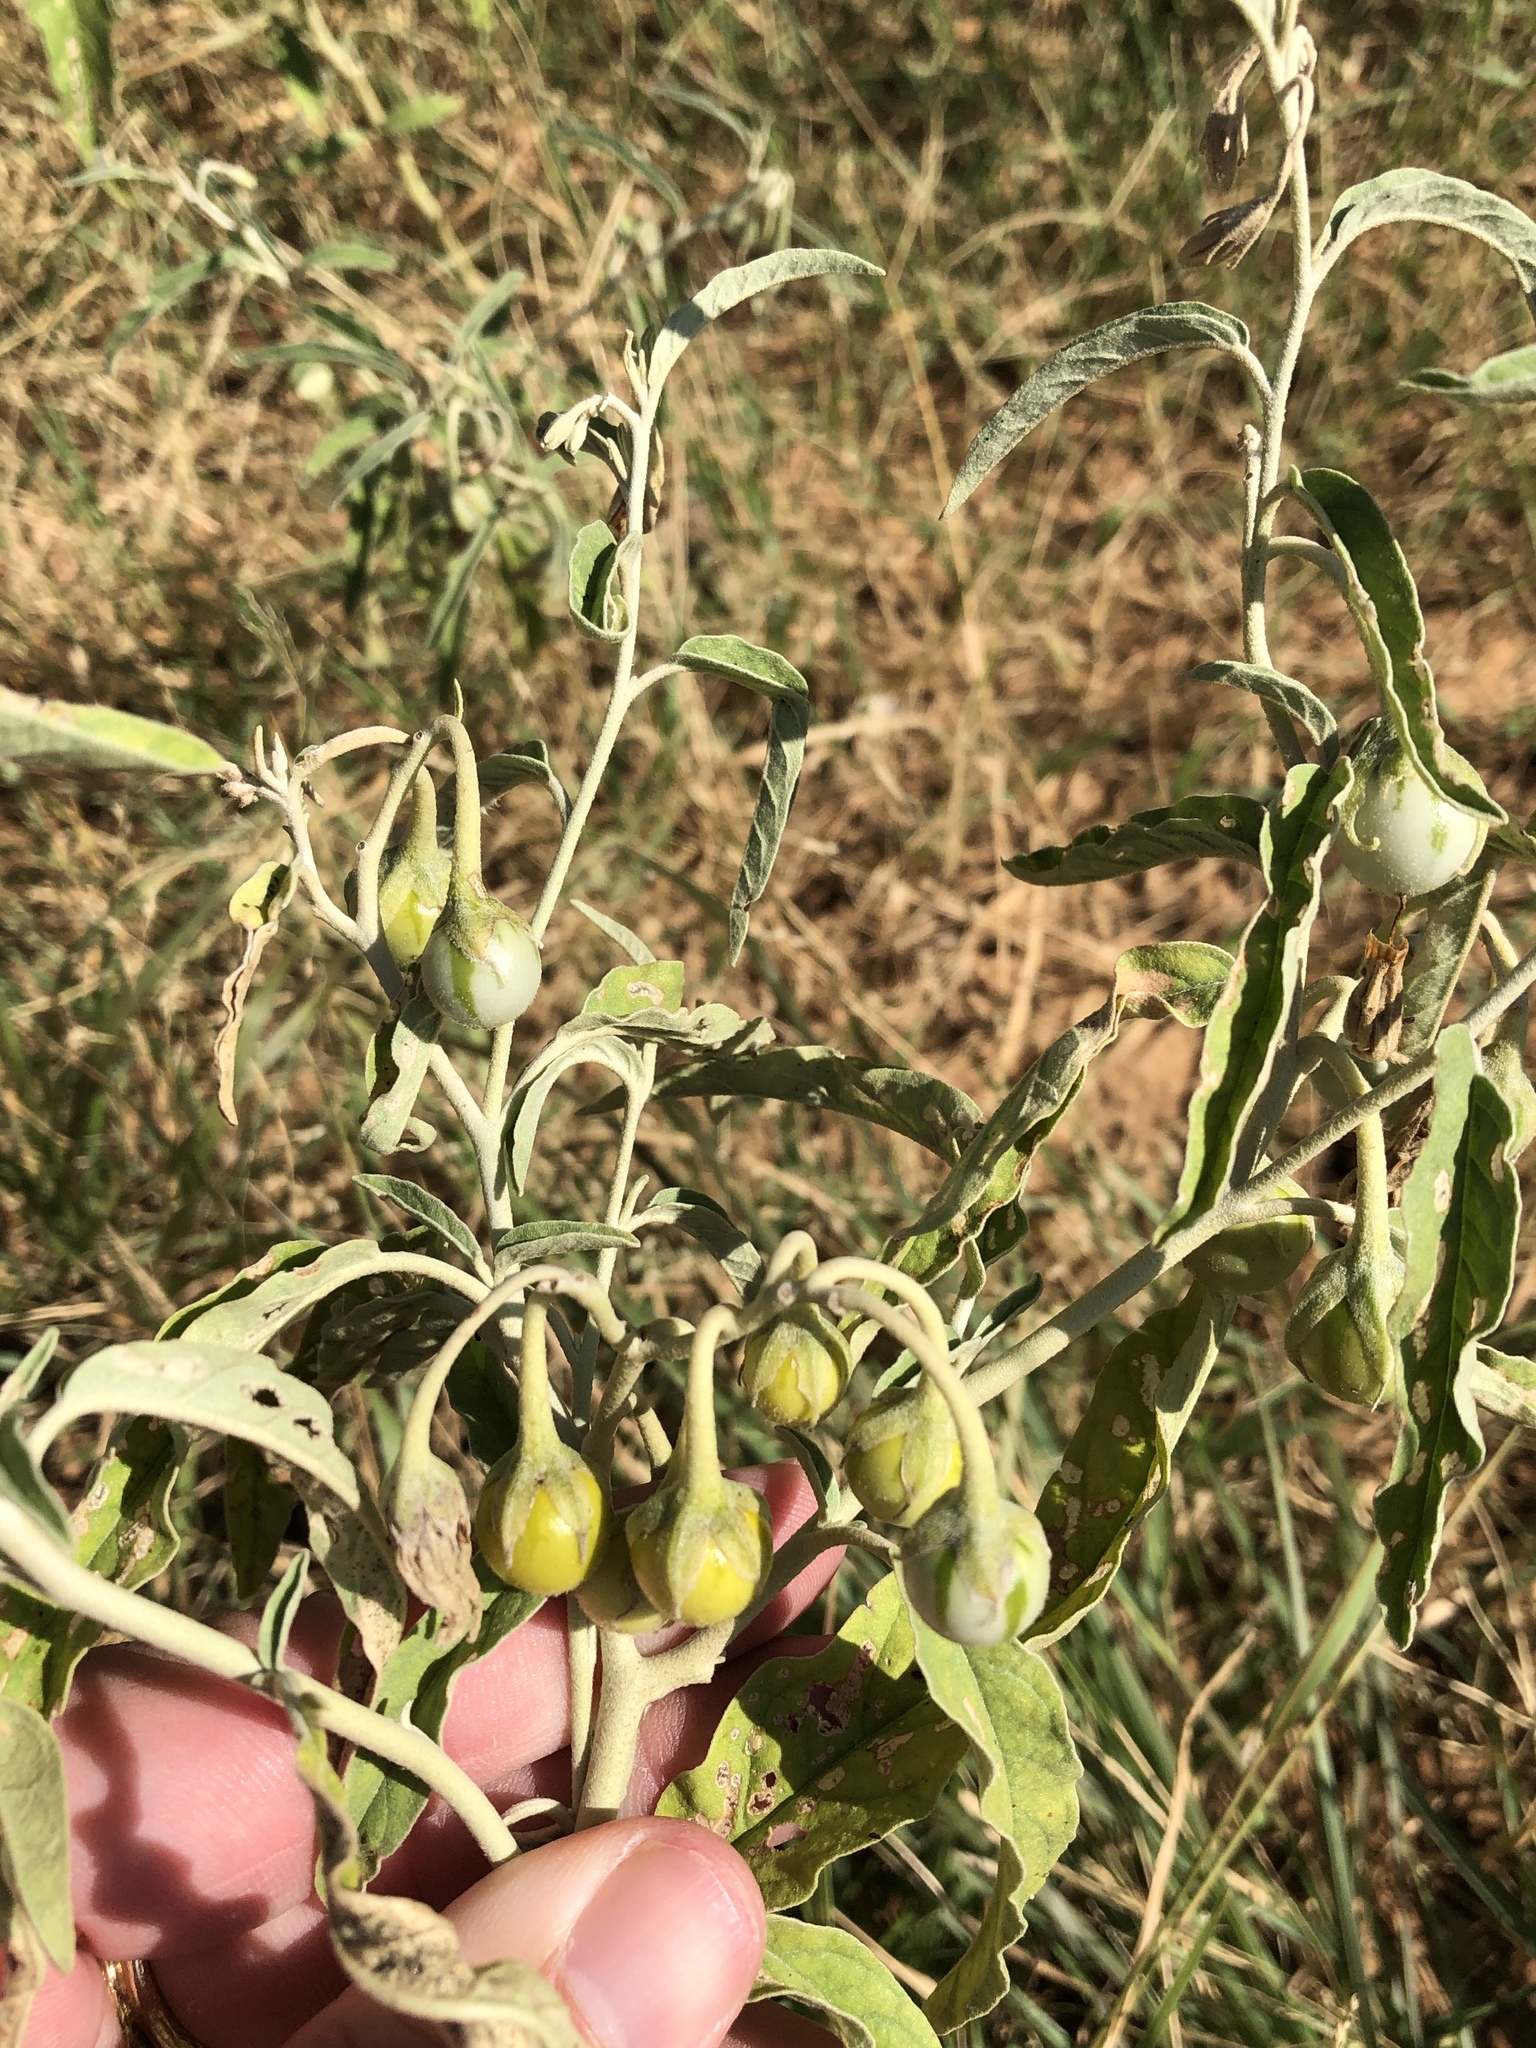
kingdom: Plantae
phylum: Tracheophyta
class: Magnoliopsida
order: Solanales
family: Solanaceae
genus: Solanum
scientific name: Solanum elaeagnifolium
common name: Silverleaf nightshade
